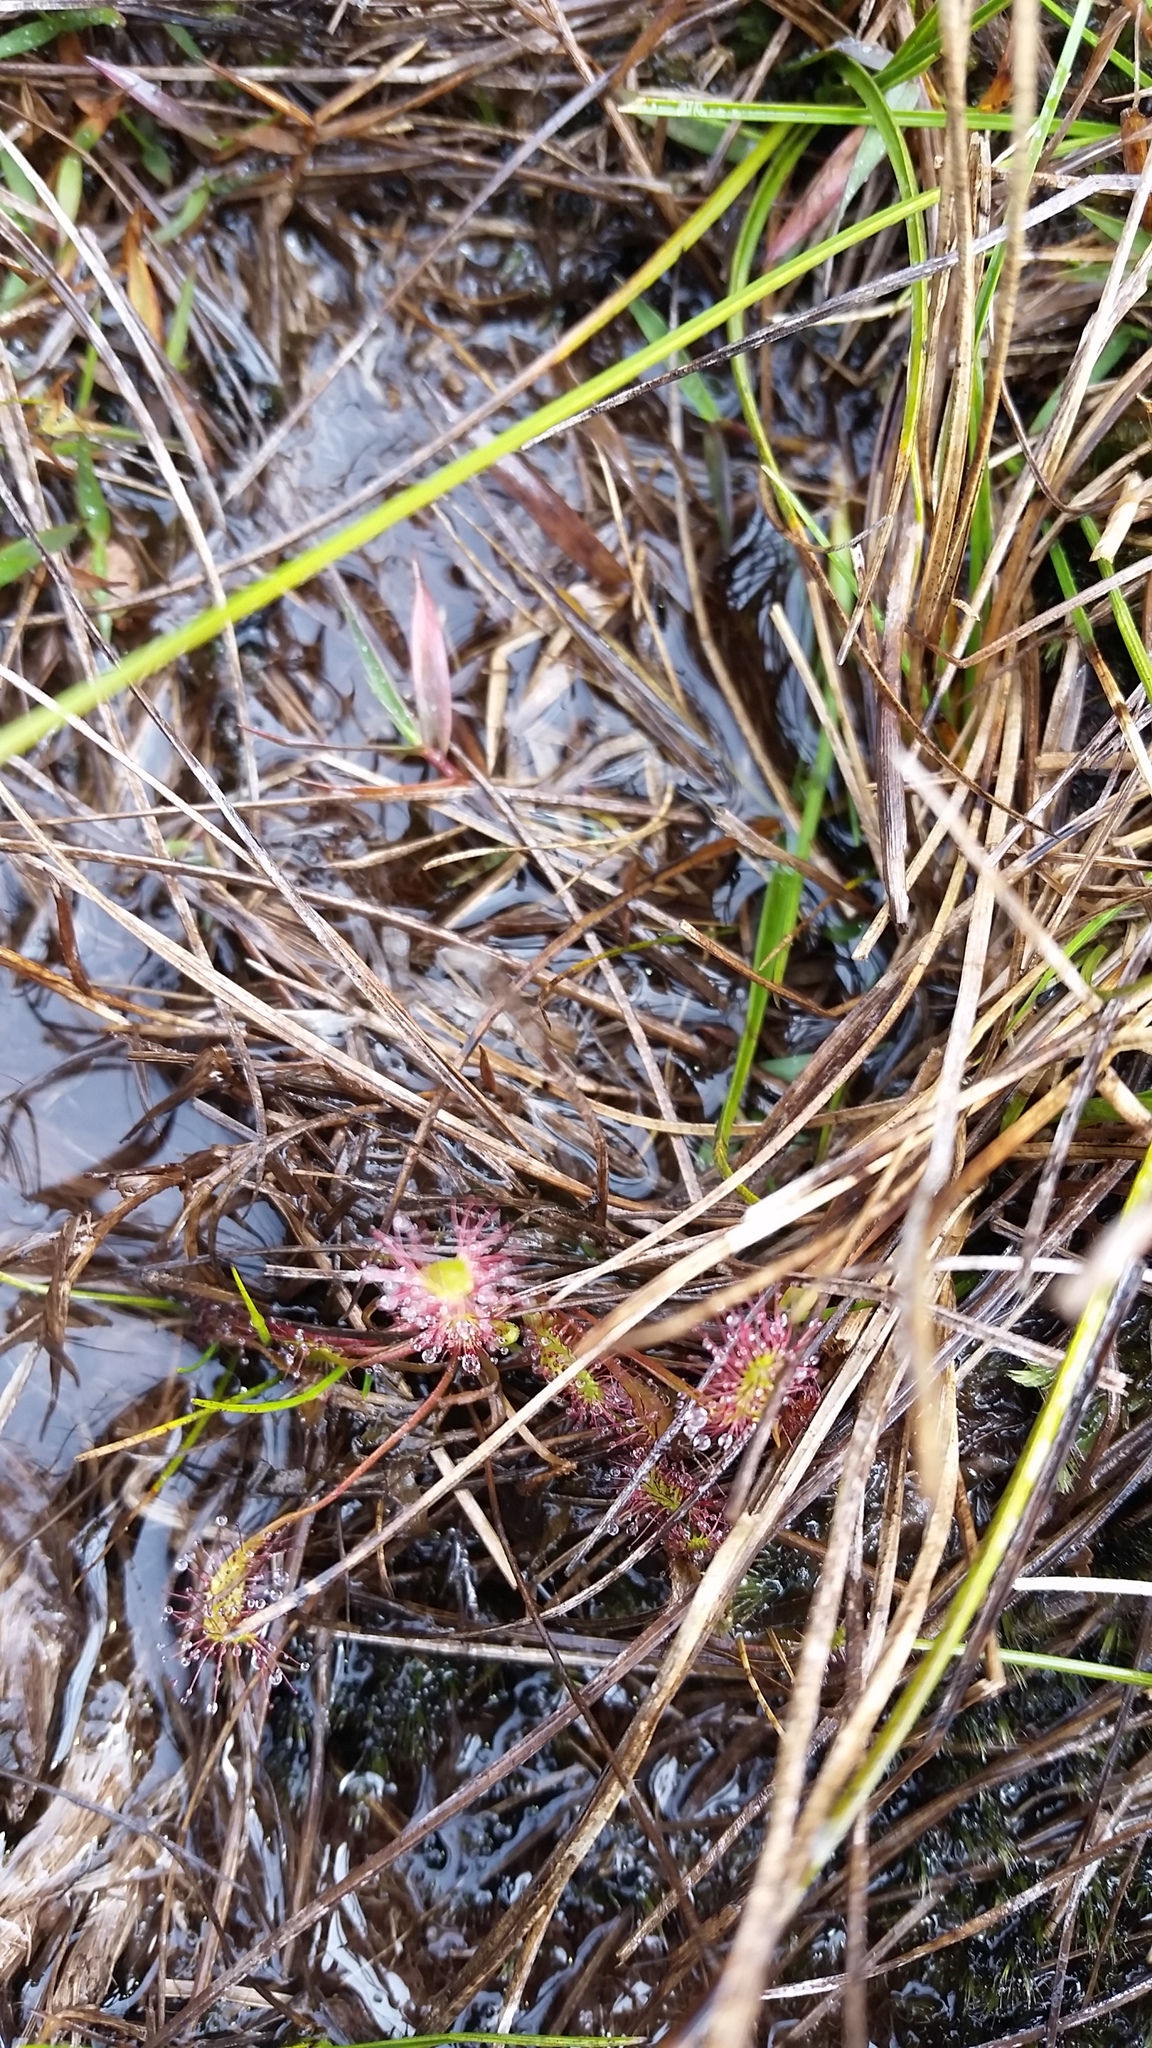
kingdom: Plantae
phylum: Tracheophyta
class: Magnoliopsida
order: Caryophyllales
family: Droseraceae
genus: Drosera
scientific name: Drosera anglica
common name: Great sundew
